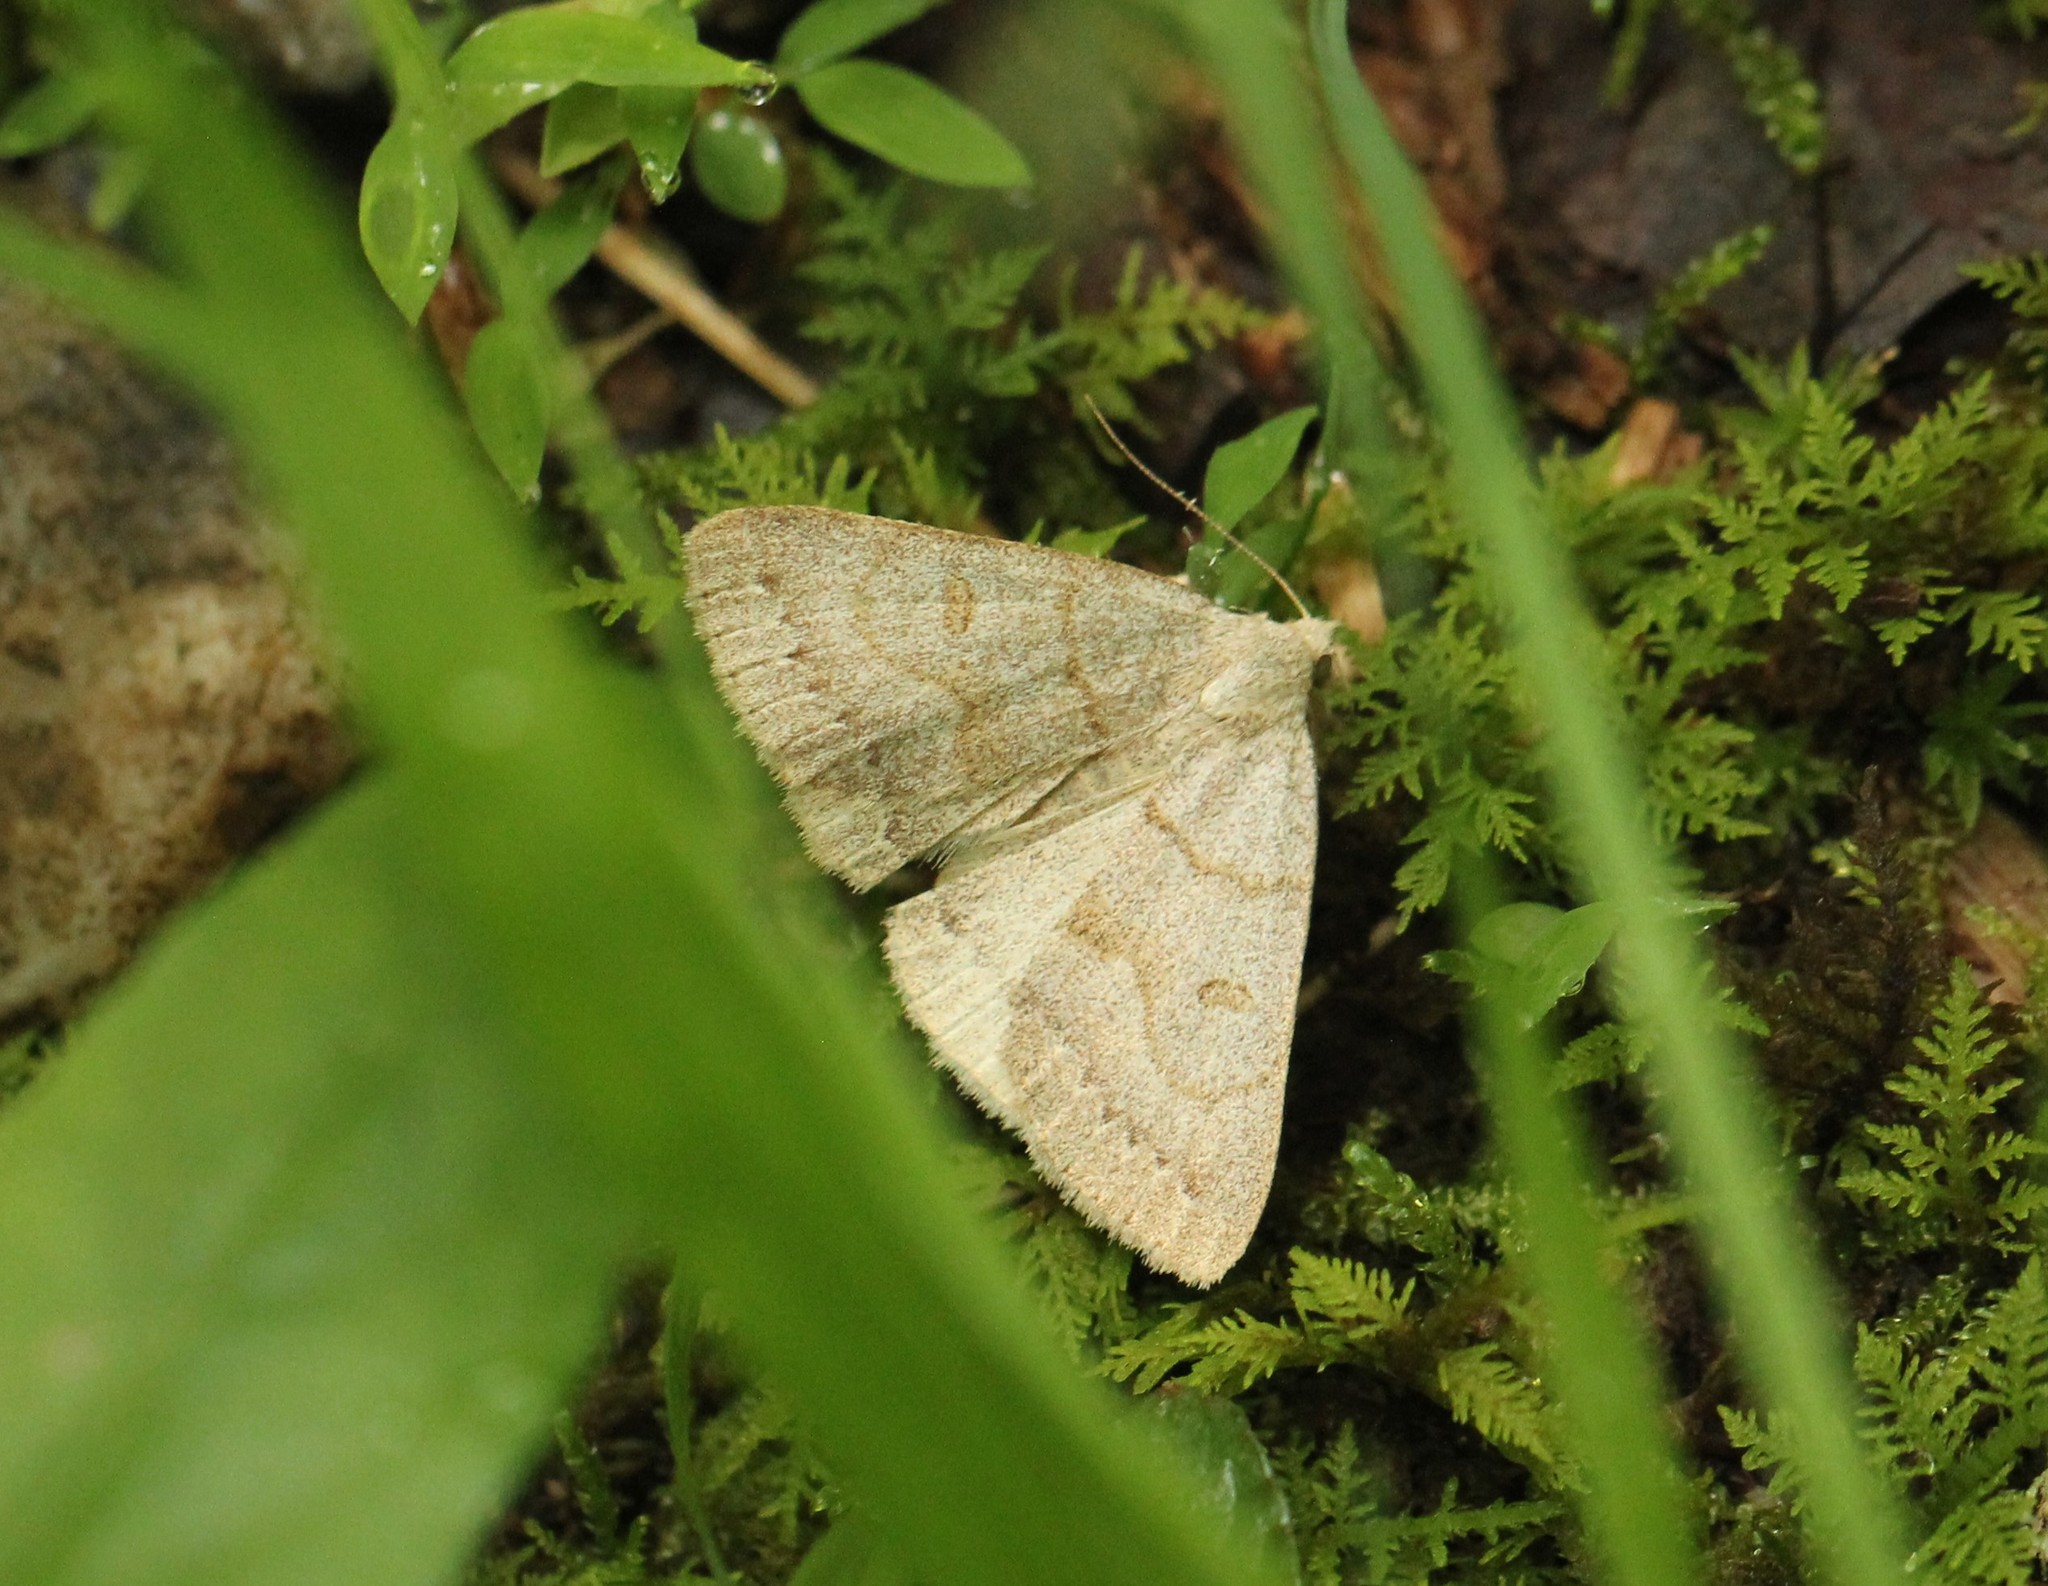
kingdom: Animalia
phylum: Arthropoda
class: Insecta
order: Lepidoptera
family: Erebidae
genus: Macrochilo
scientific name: Macrochilo morbidalis
